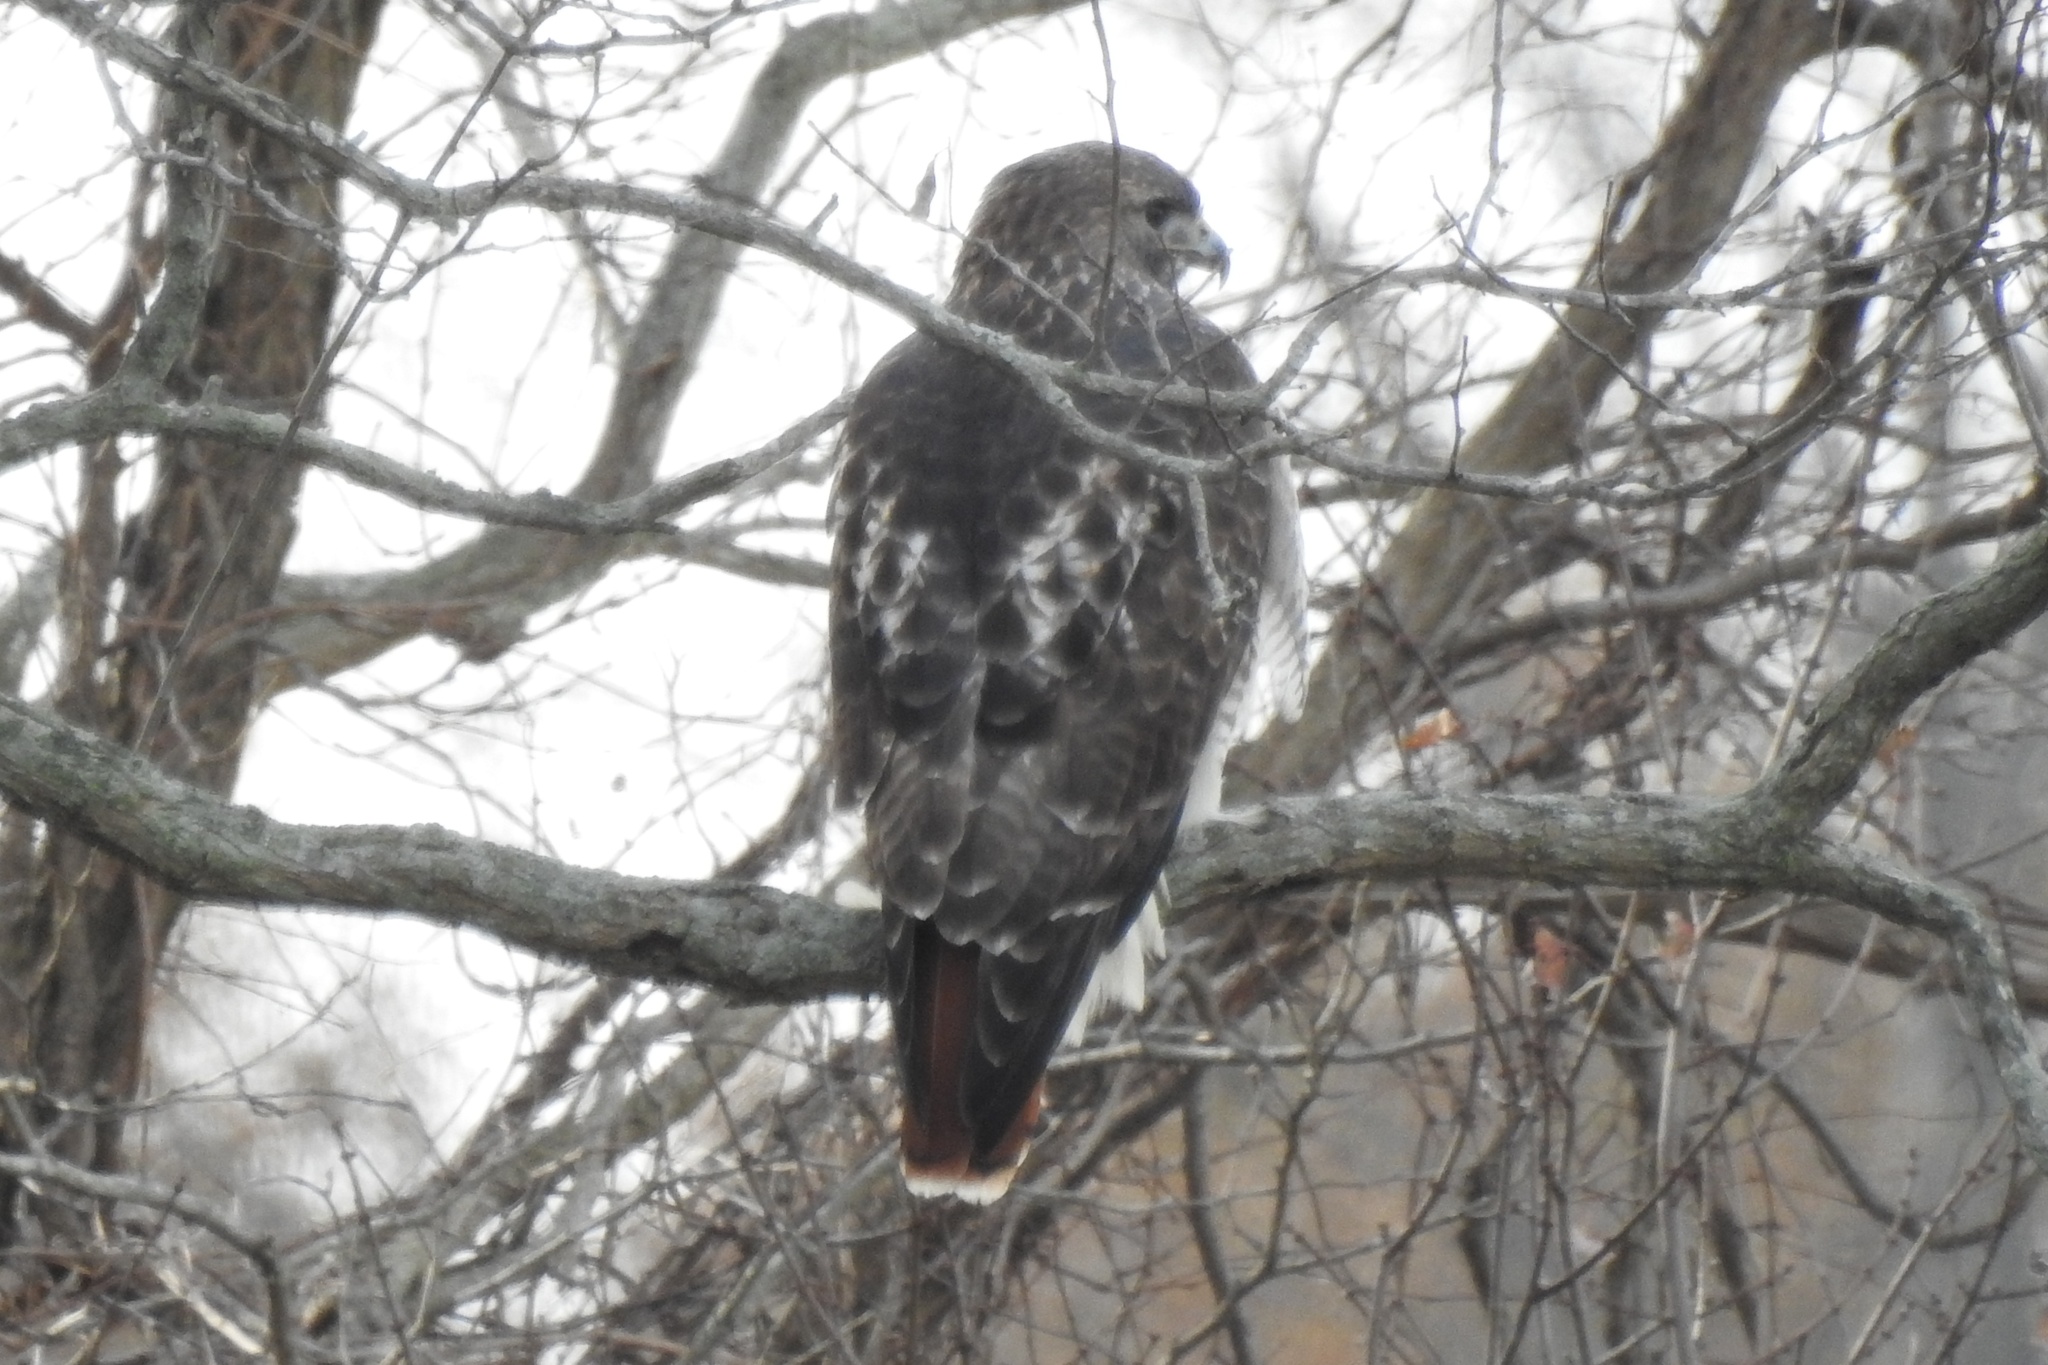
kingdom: Animalia
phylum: Chordata
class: Aves
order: Accipitriformes
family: Accipitridae
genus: Buteo
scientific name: Buteo jamaicensis
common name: Red-tailed hawk
